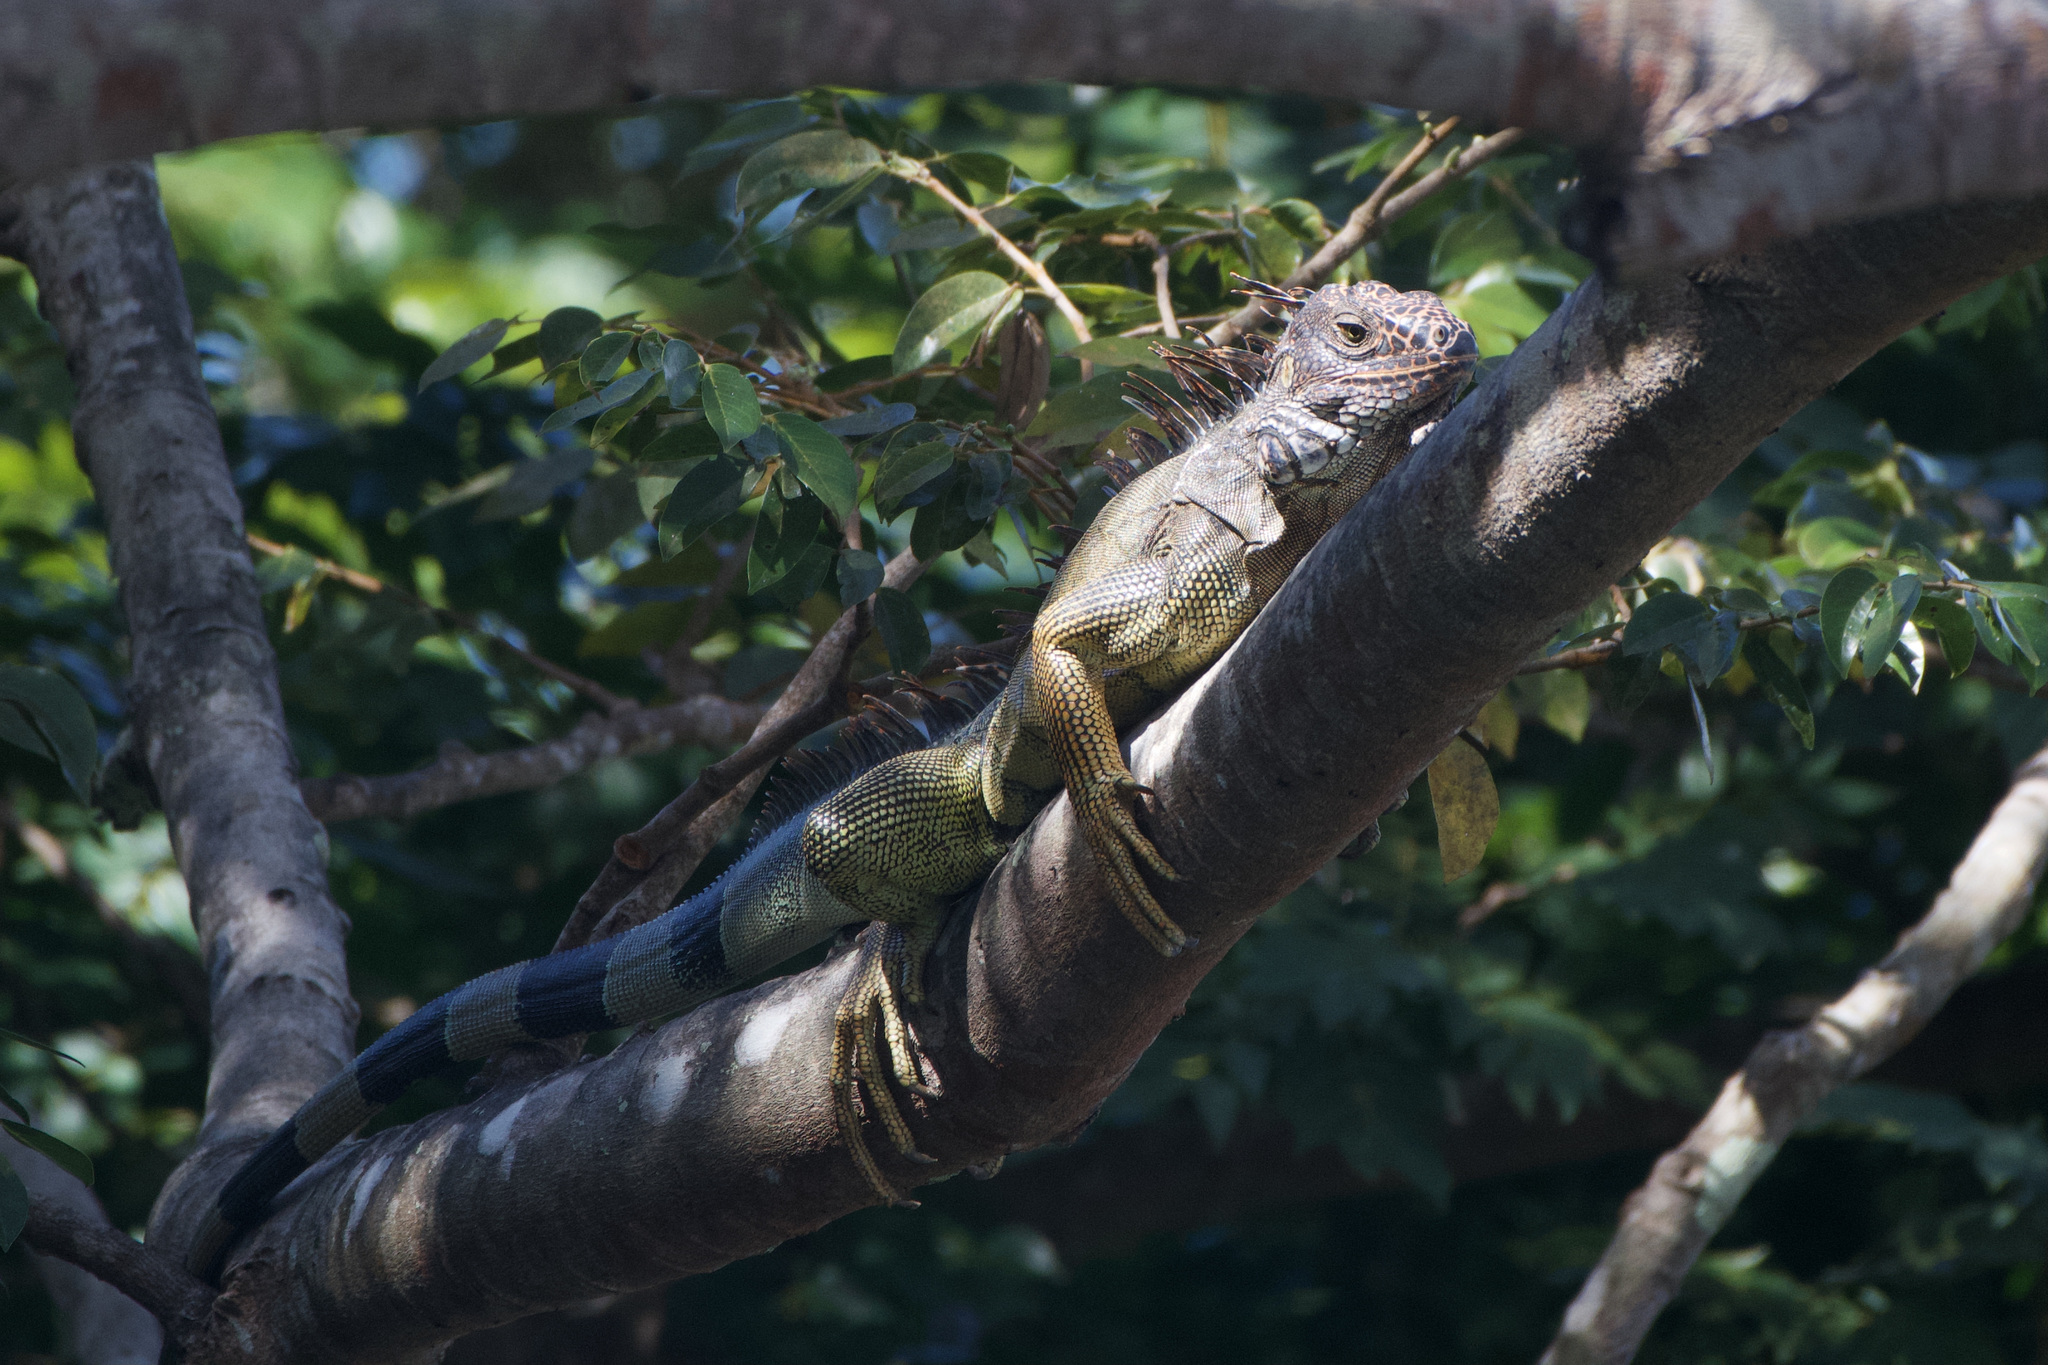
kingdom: Animalia
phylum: Chordata
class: Squamata
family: Iguanidae
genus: Iguana
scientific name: Iguana iguana
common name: Green iguana
